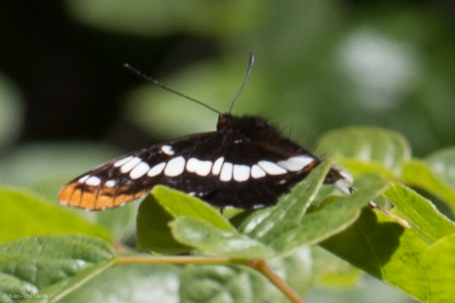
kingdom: Animalia
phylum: Arthropoda
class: Insecta
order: Lepidoptera
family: Nymphalidae
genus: Limenitis
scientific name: Limenitis lorquini
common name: Lorquin's admiral
